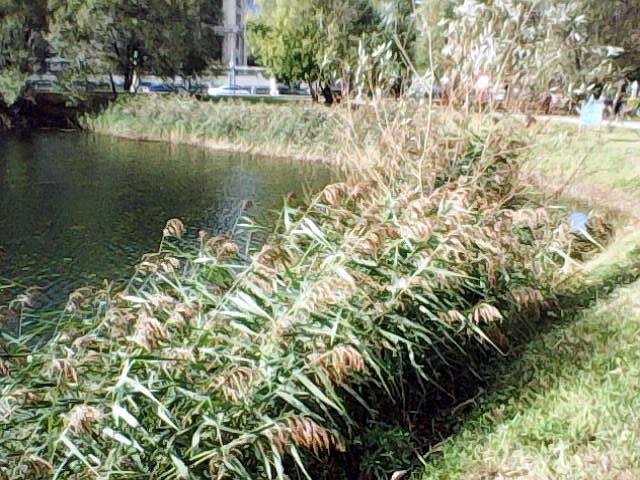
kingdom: Plantae
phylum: Tracheophyta
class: Liliopsida
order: Poales
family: Poaceae
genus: Phragmites
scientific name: Phragmites australis
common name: Common reed
